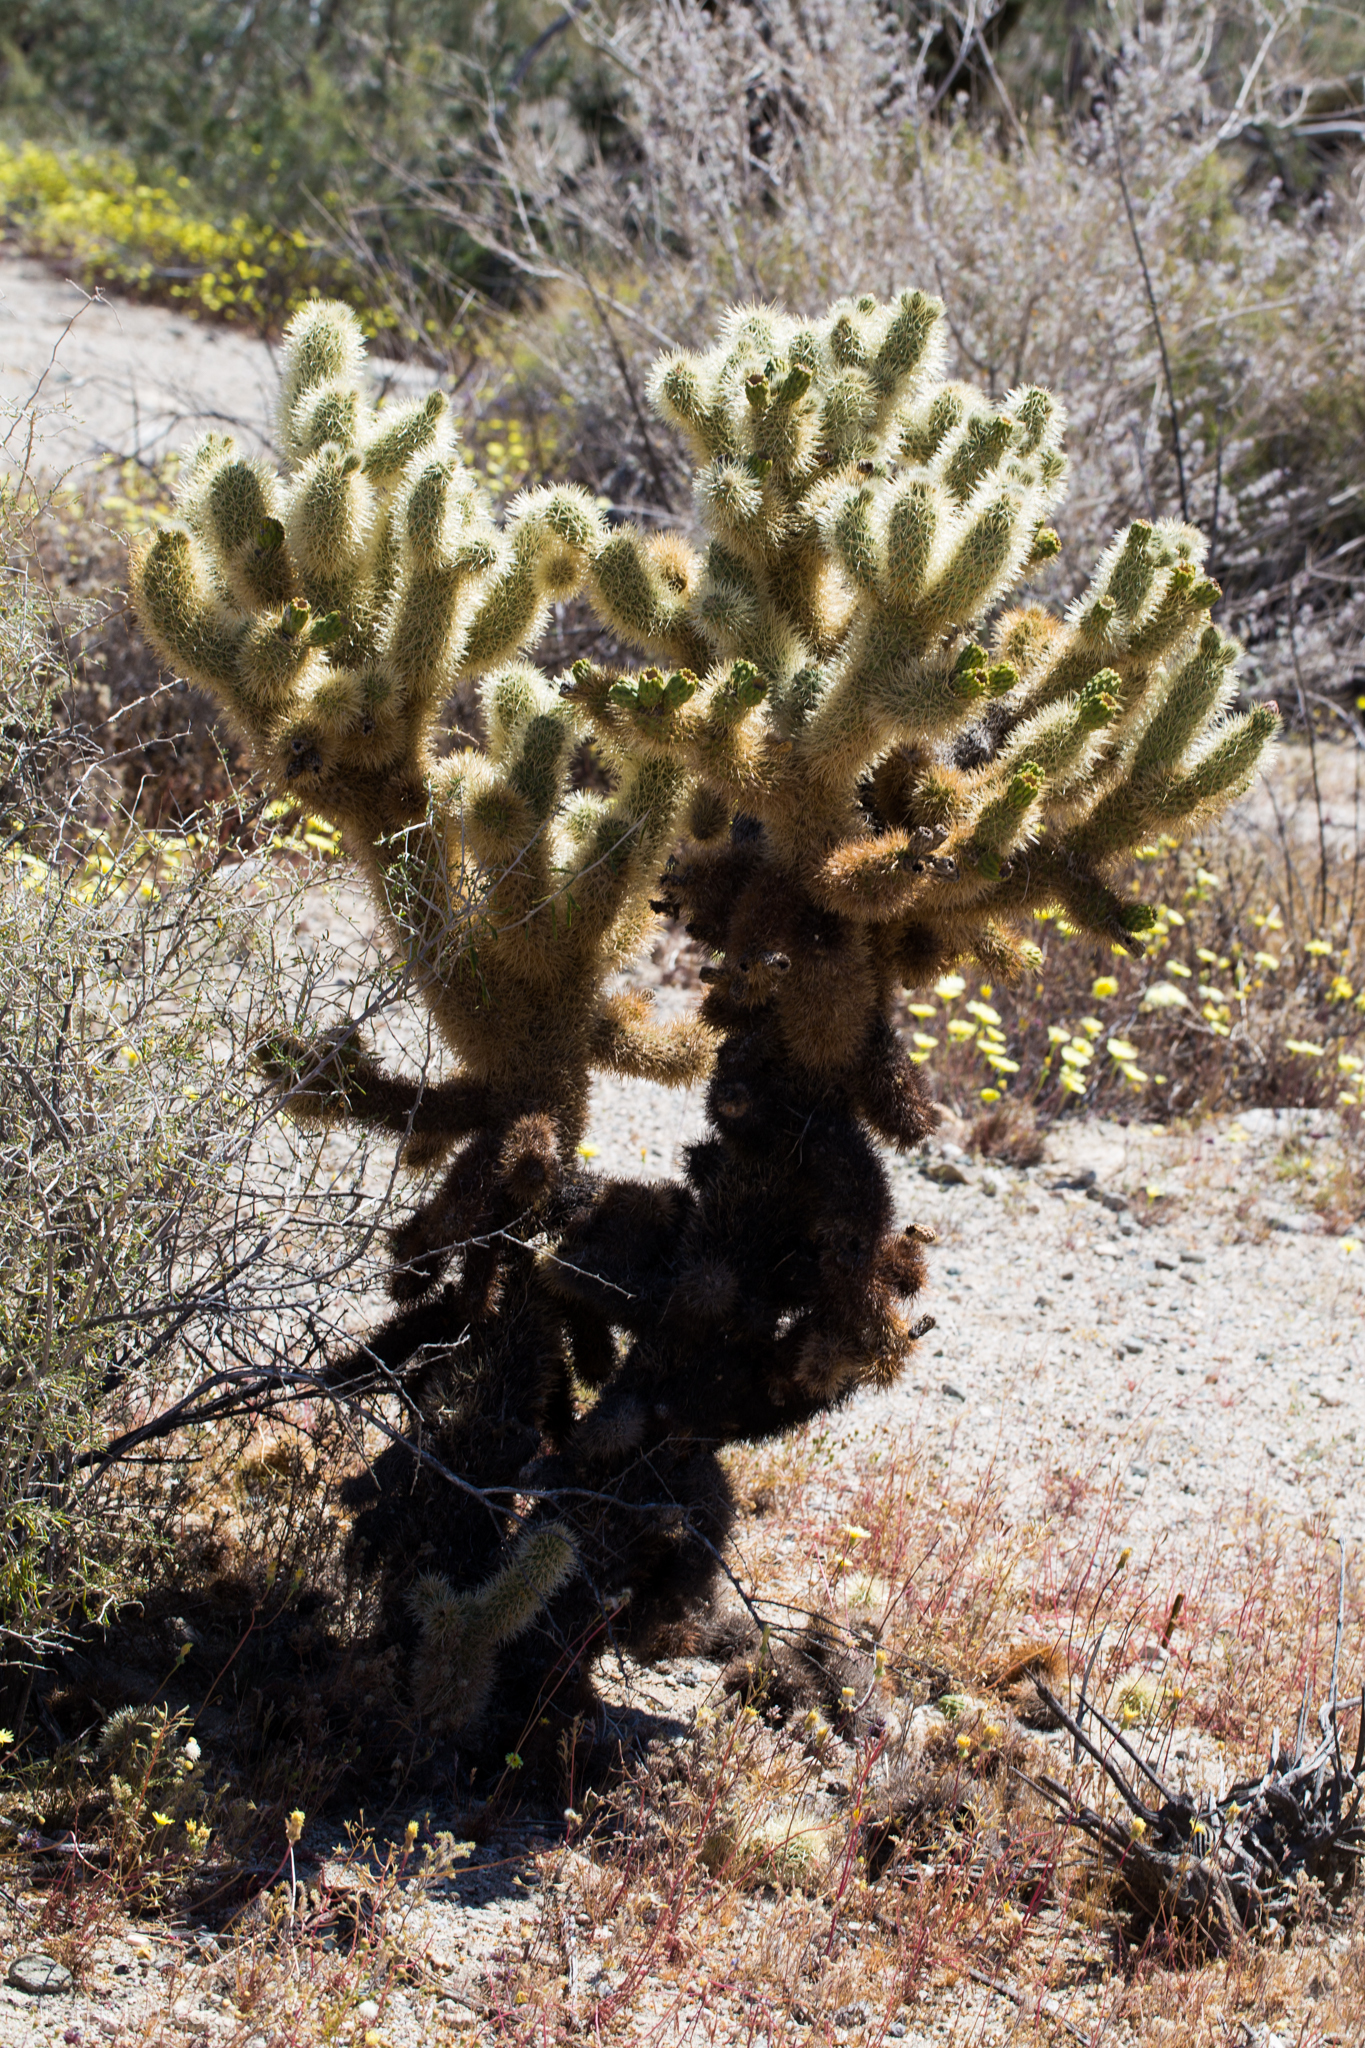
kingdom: Plantae
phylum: Tracheophyta
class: Magnoliopsida
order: Caryophyllales
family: Cactaceae
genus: Cylindropuntia
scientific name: Cylindropuntia fosbergii
